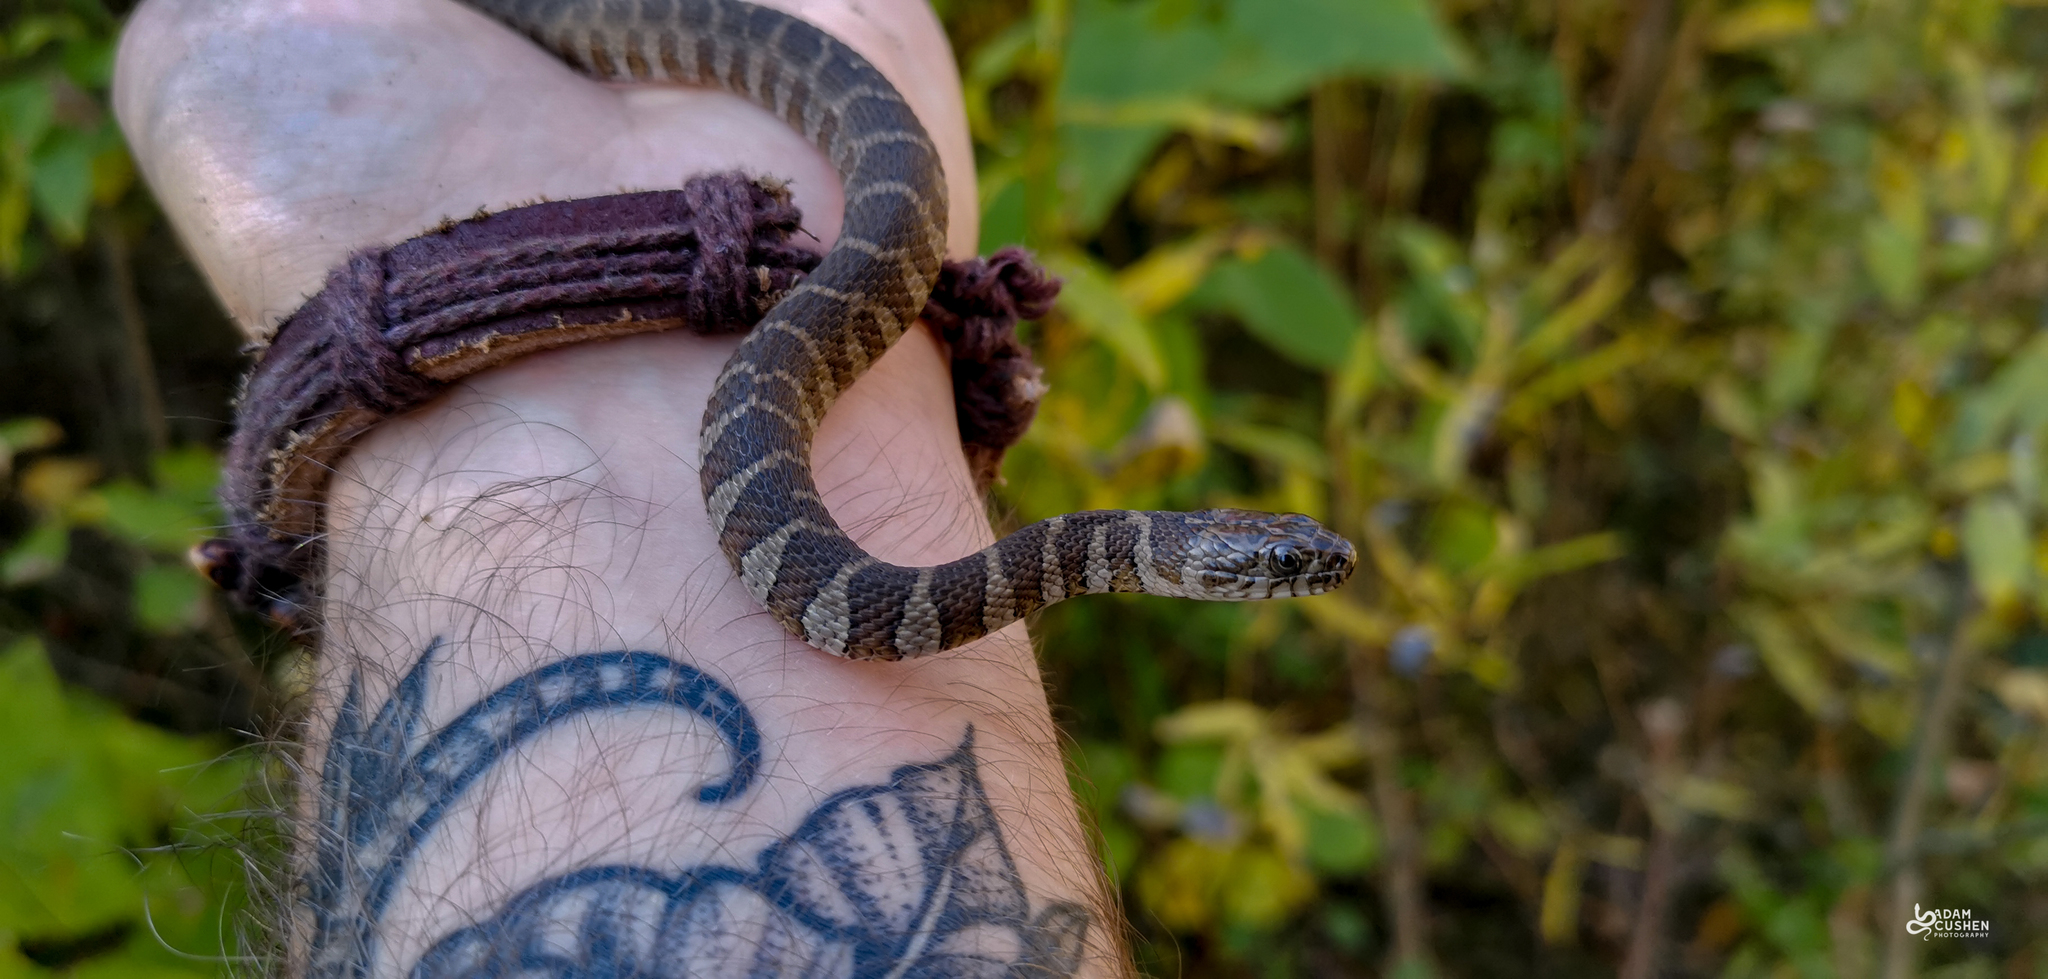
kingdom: Animalia
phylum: Chordata
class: Squamata
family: Colubridae
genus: Nerodia
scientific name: Nerodia sipedon
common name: Northern water snake
